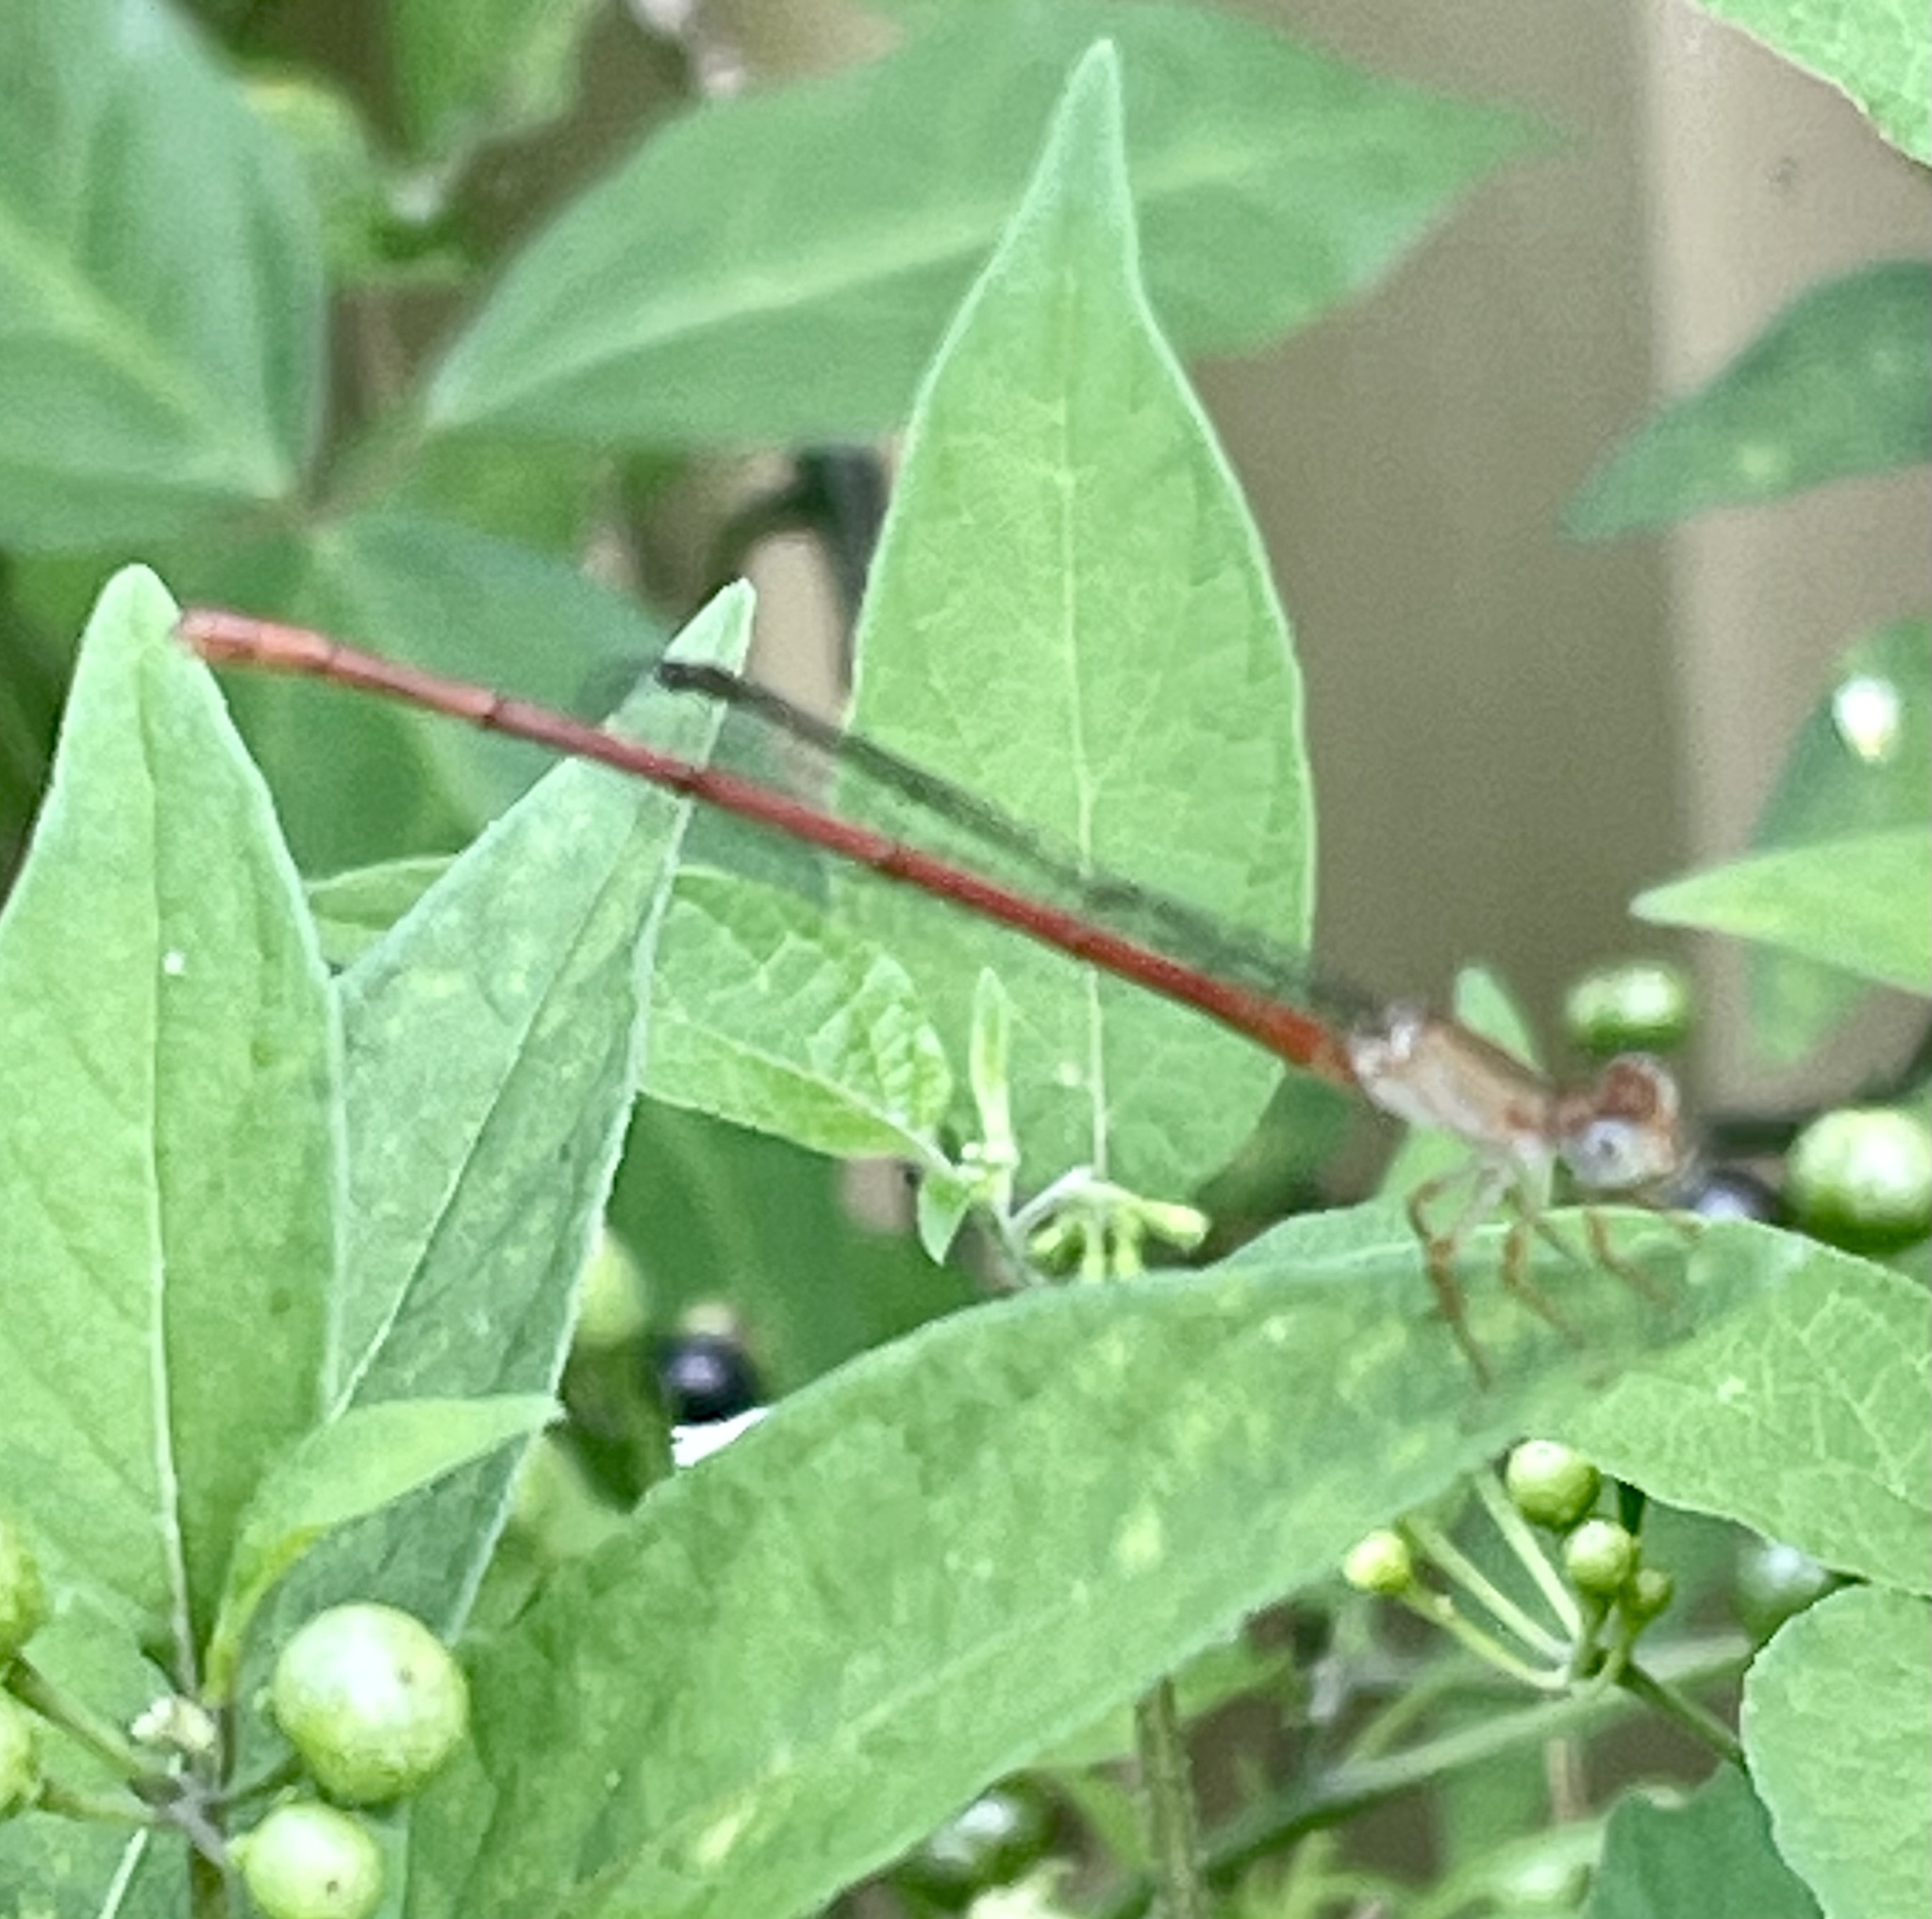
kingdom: Animalia
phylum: Arthropoda
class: Insecta
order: Odonata
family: Coenagrionidae
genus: Argiocnemis
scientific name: Argiocnemis rubescens
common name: Red-tipped shadefly
